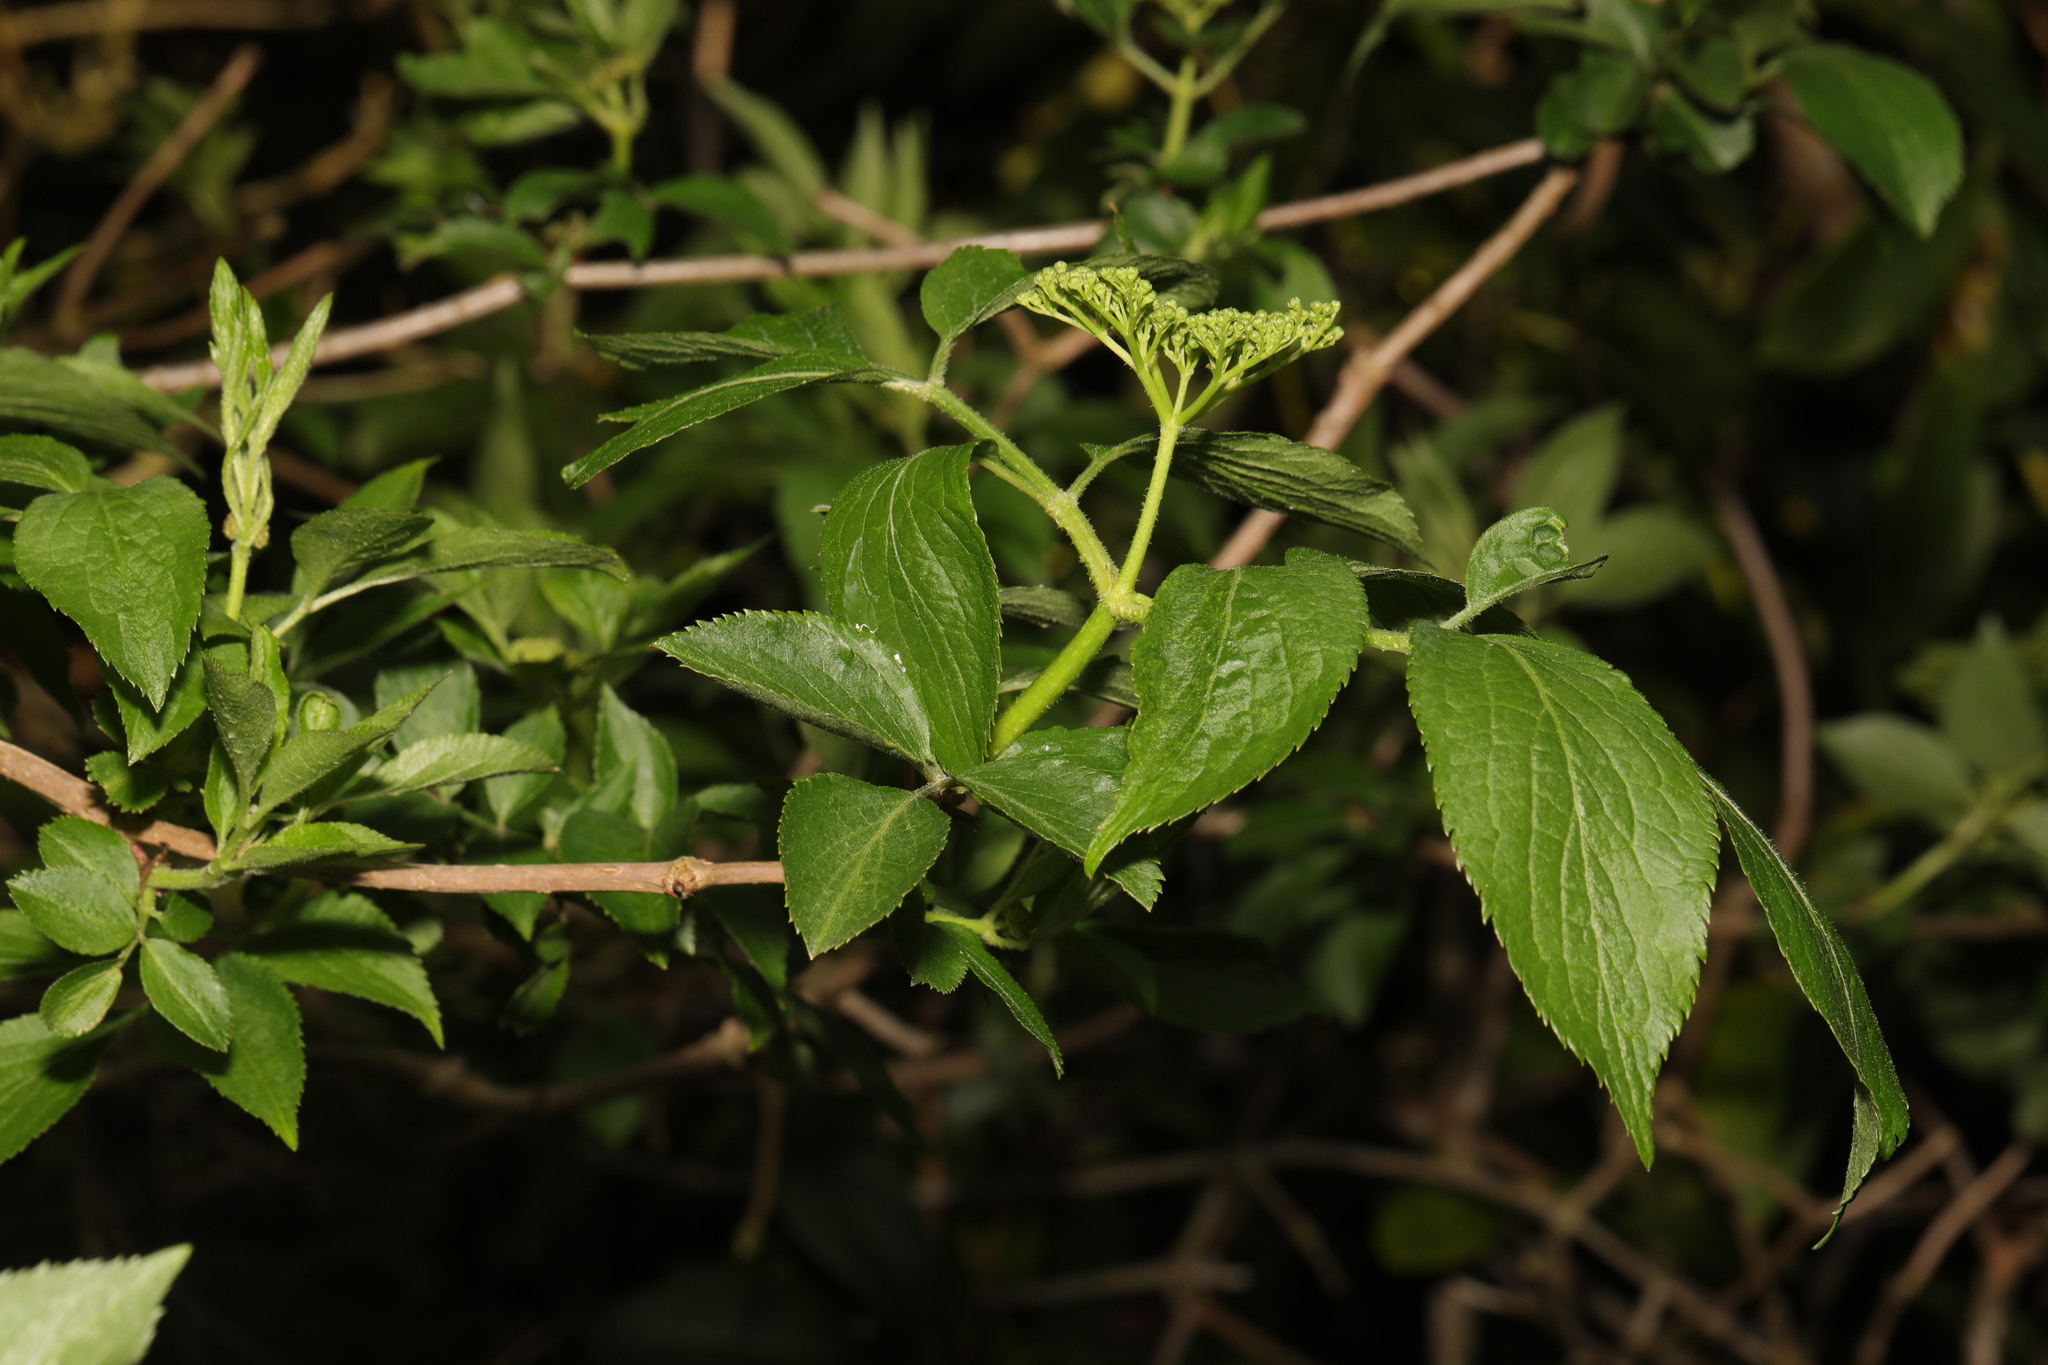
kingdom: Plantae
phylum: Tracheophyta
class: Magnoliopsida
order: Dipsacales
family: Viburnaceae
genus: Sambucus
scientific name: Sambucus nigra
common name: Elder
